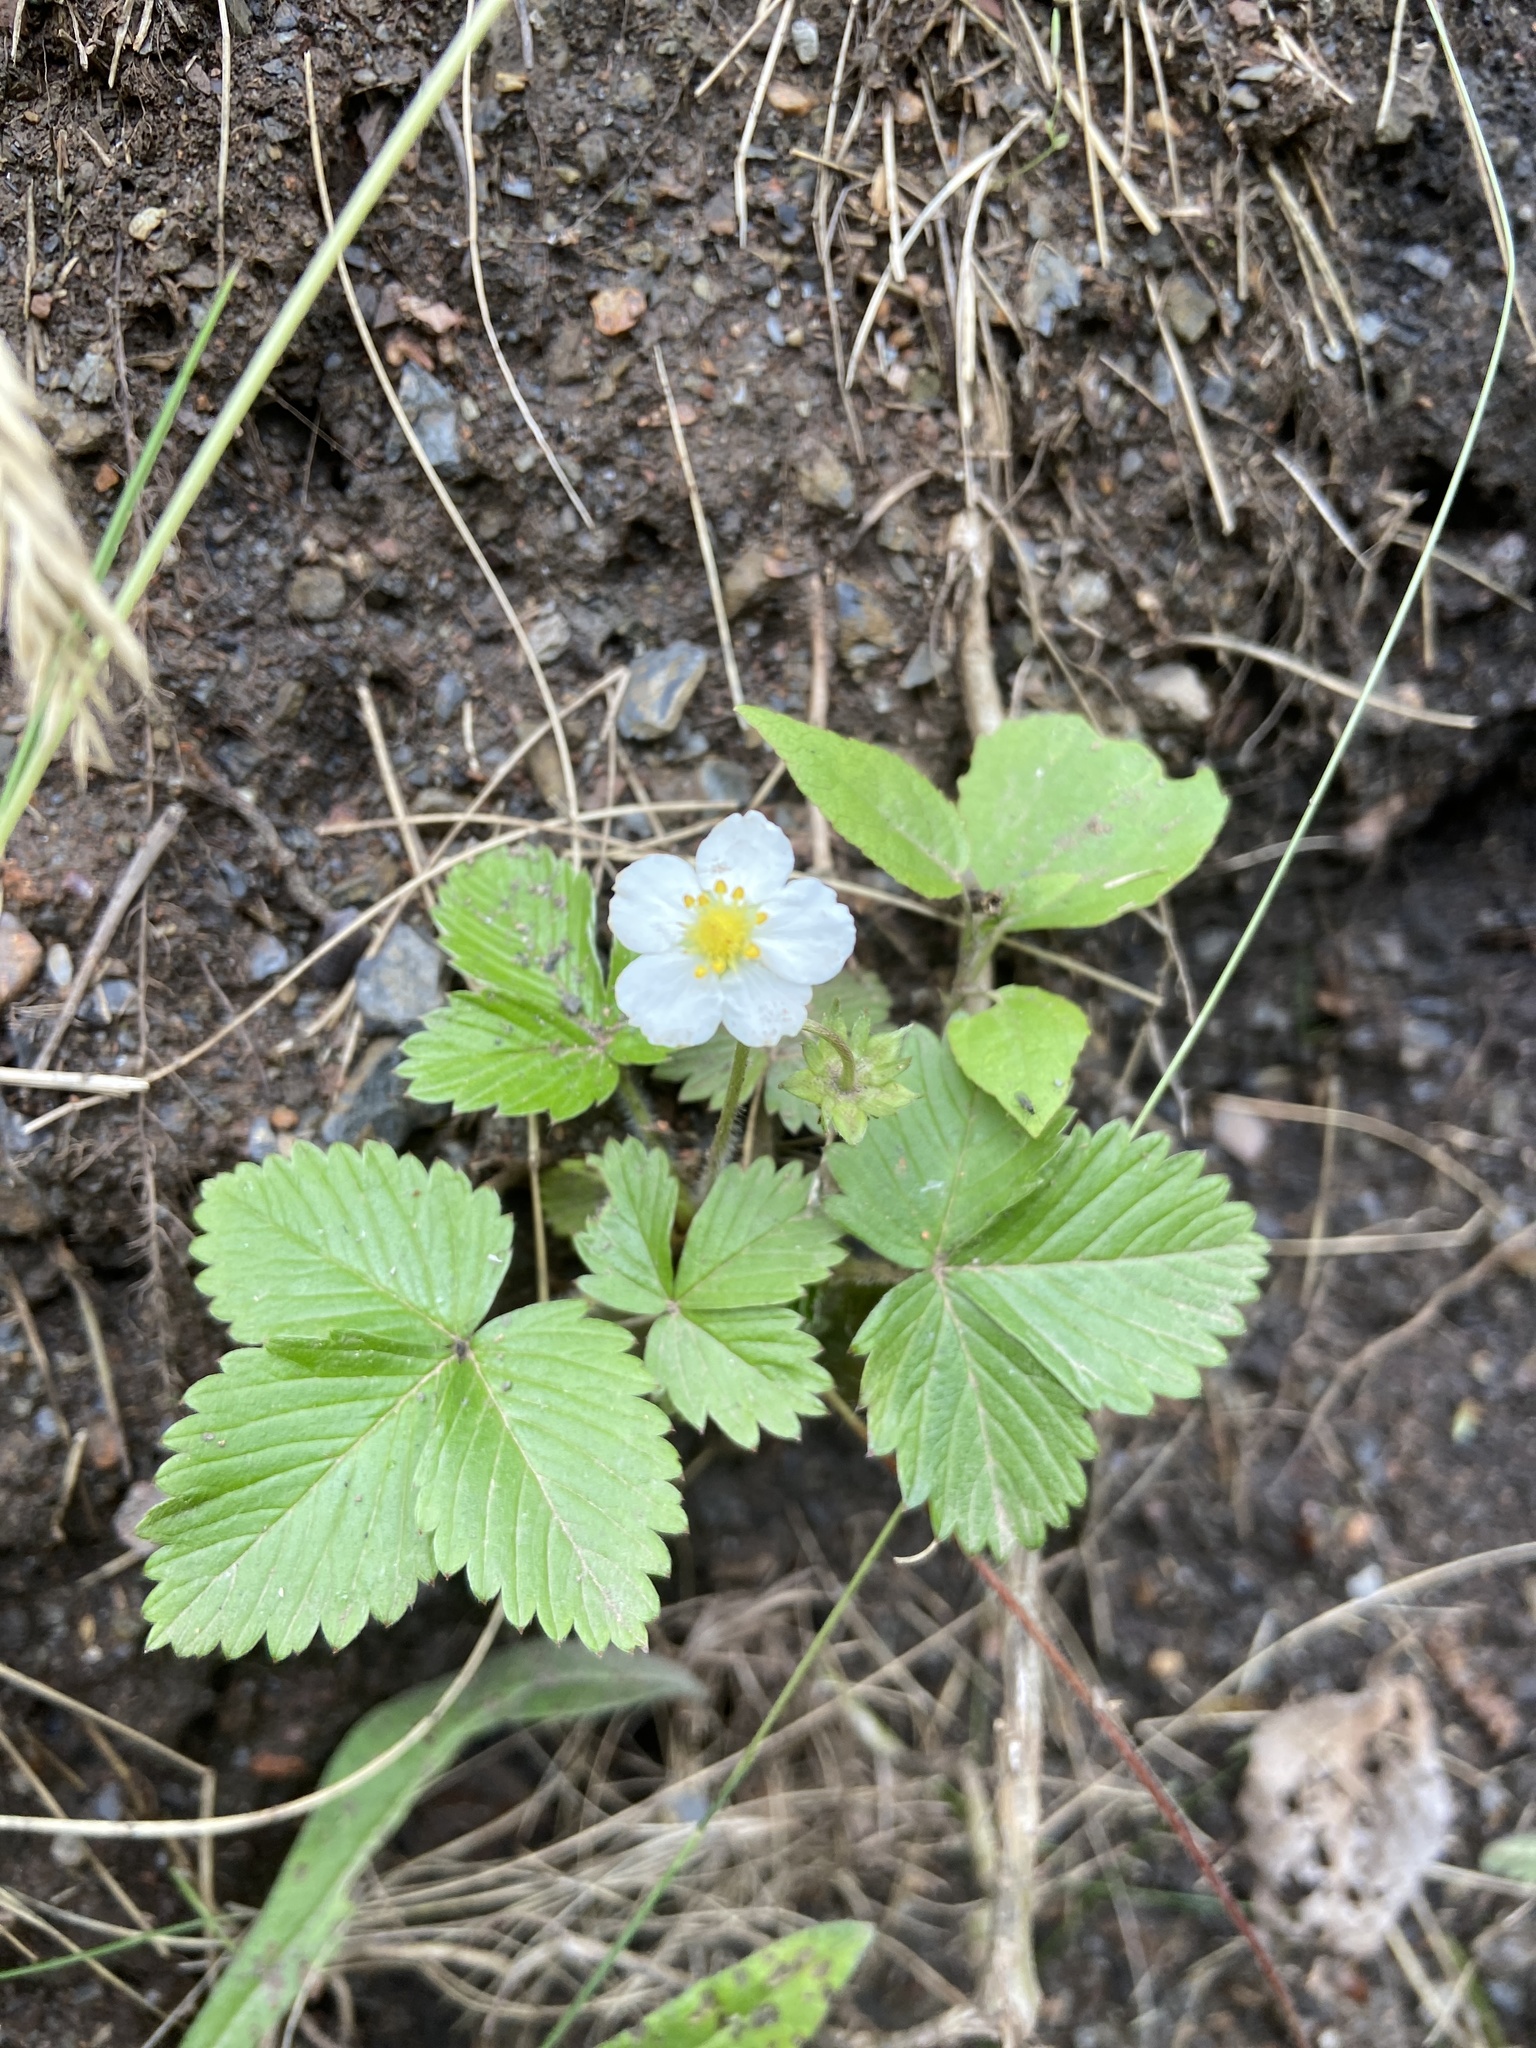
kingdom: Plantae
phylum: Tracheophyta
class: Magnoliopsida
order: Rosales
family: Rosaceae
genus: Fragaria
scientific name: Fragaria vesca
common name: Wild strawberry
